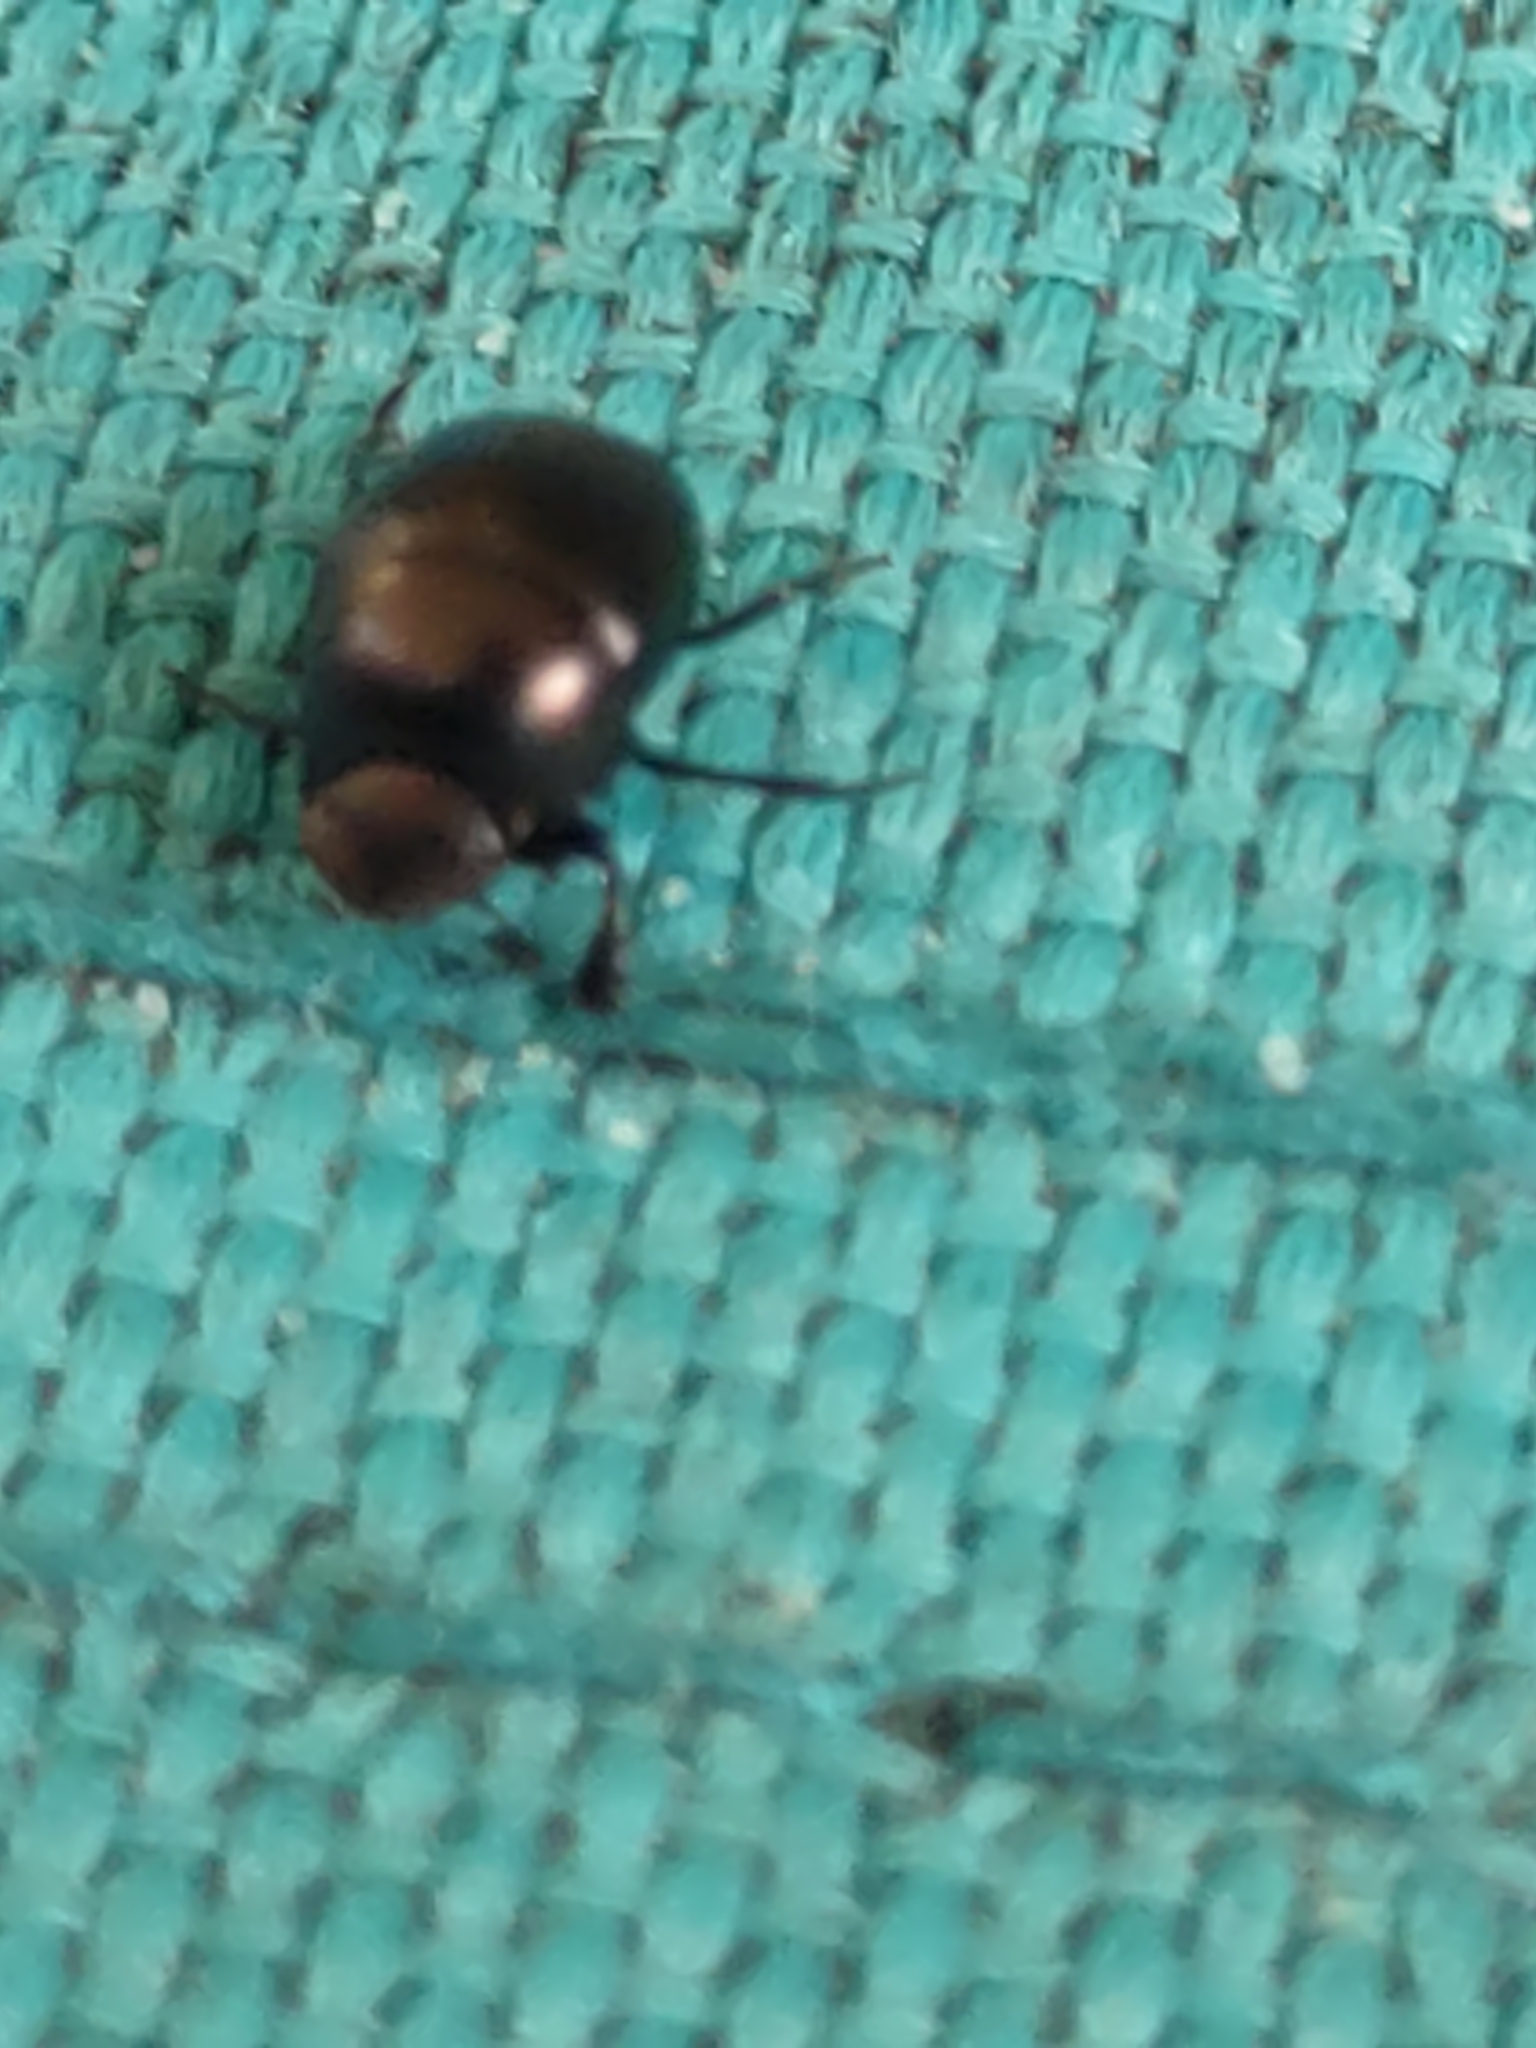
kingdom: Animalia
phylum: Arthropoda
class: Insecta
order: Coleoptera
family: Scarabaeidae
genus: Canthon
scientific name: Canthon viridis
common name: Tumblebug
